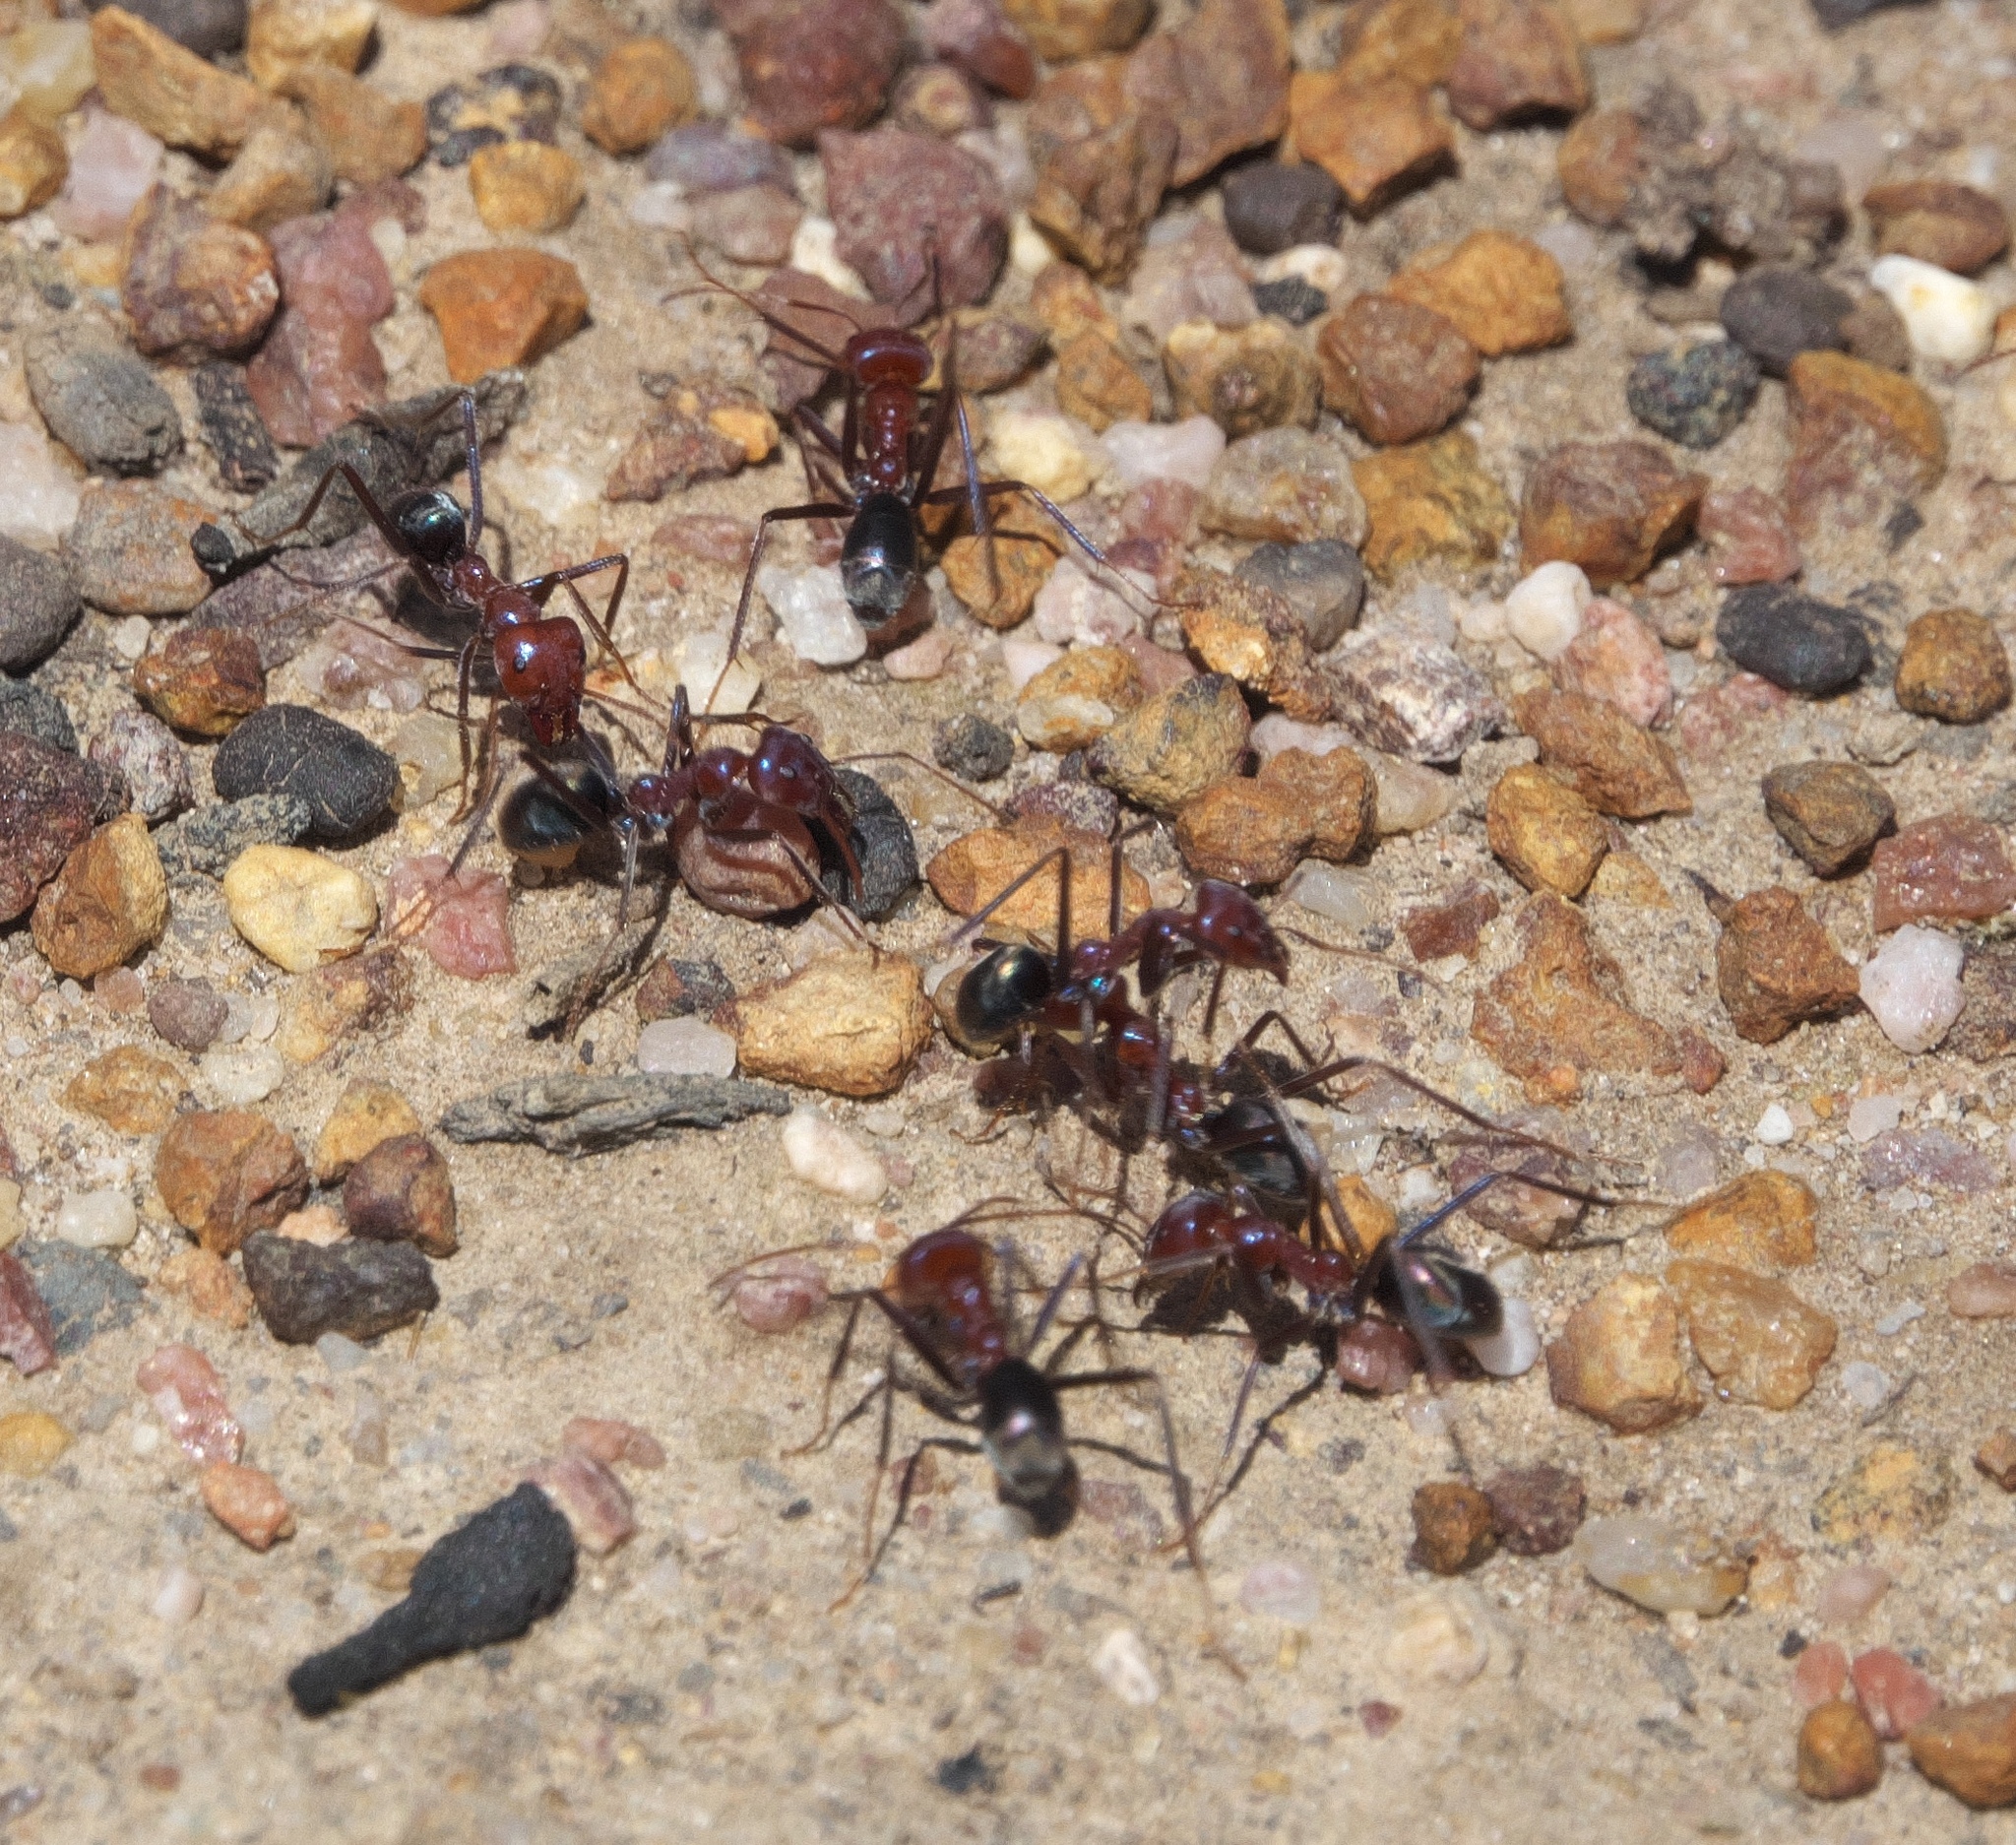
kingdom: Animalia
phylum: Arthropoda
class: Insecta
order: Hymenoptera
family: Formicidae
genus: Iridomyrmex
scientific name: Iridomyrmex purpureus
